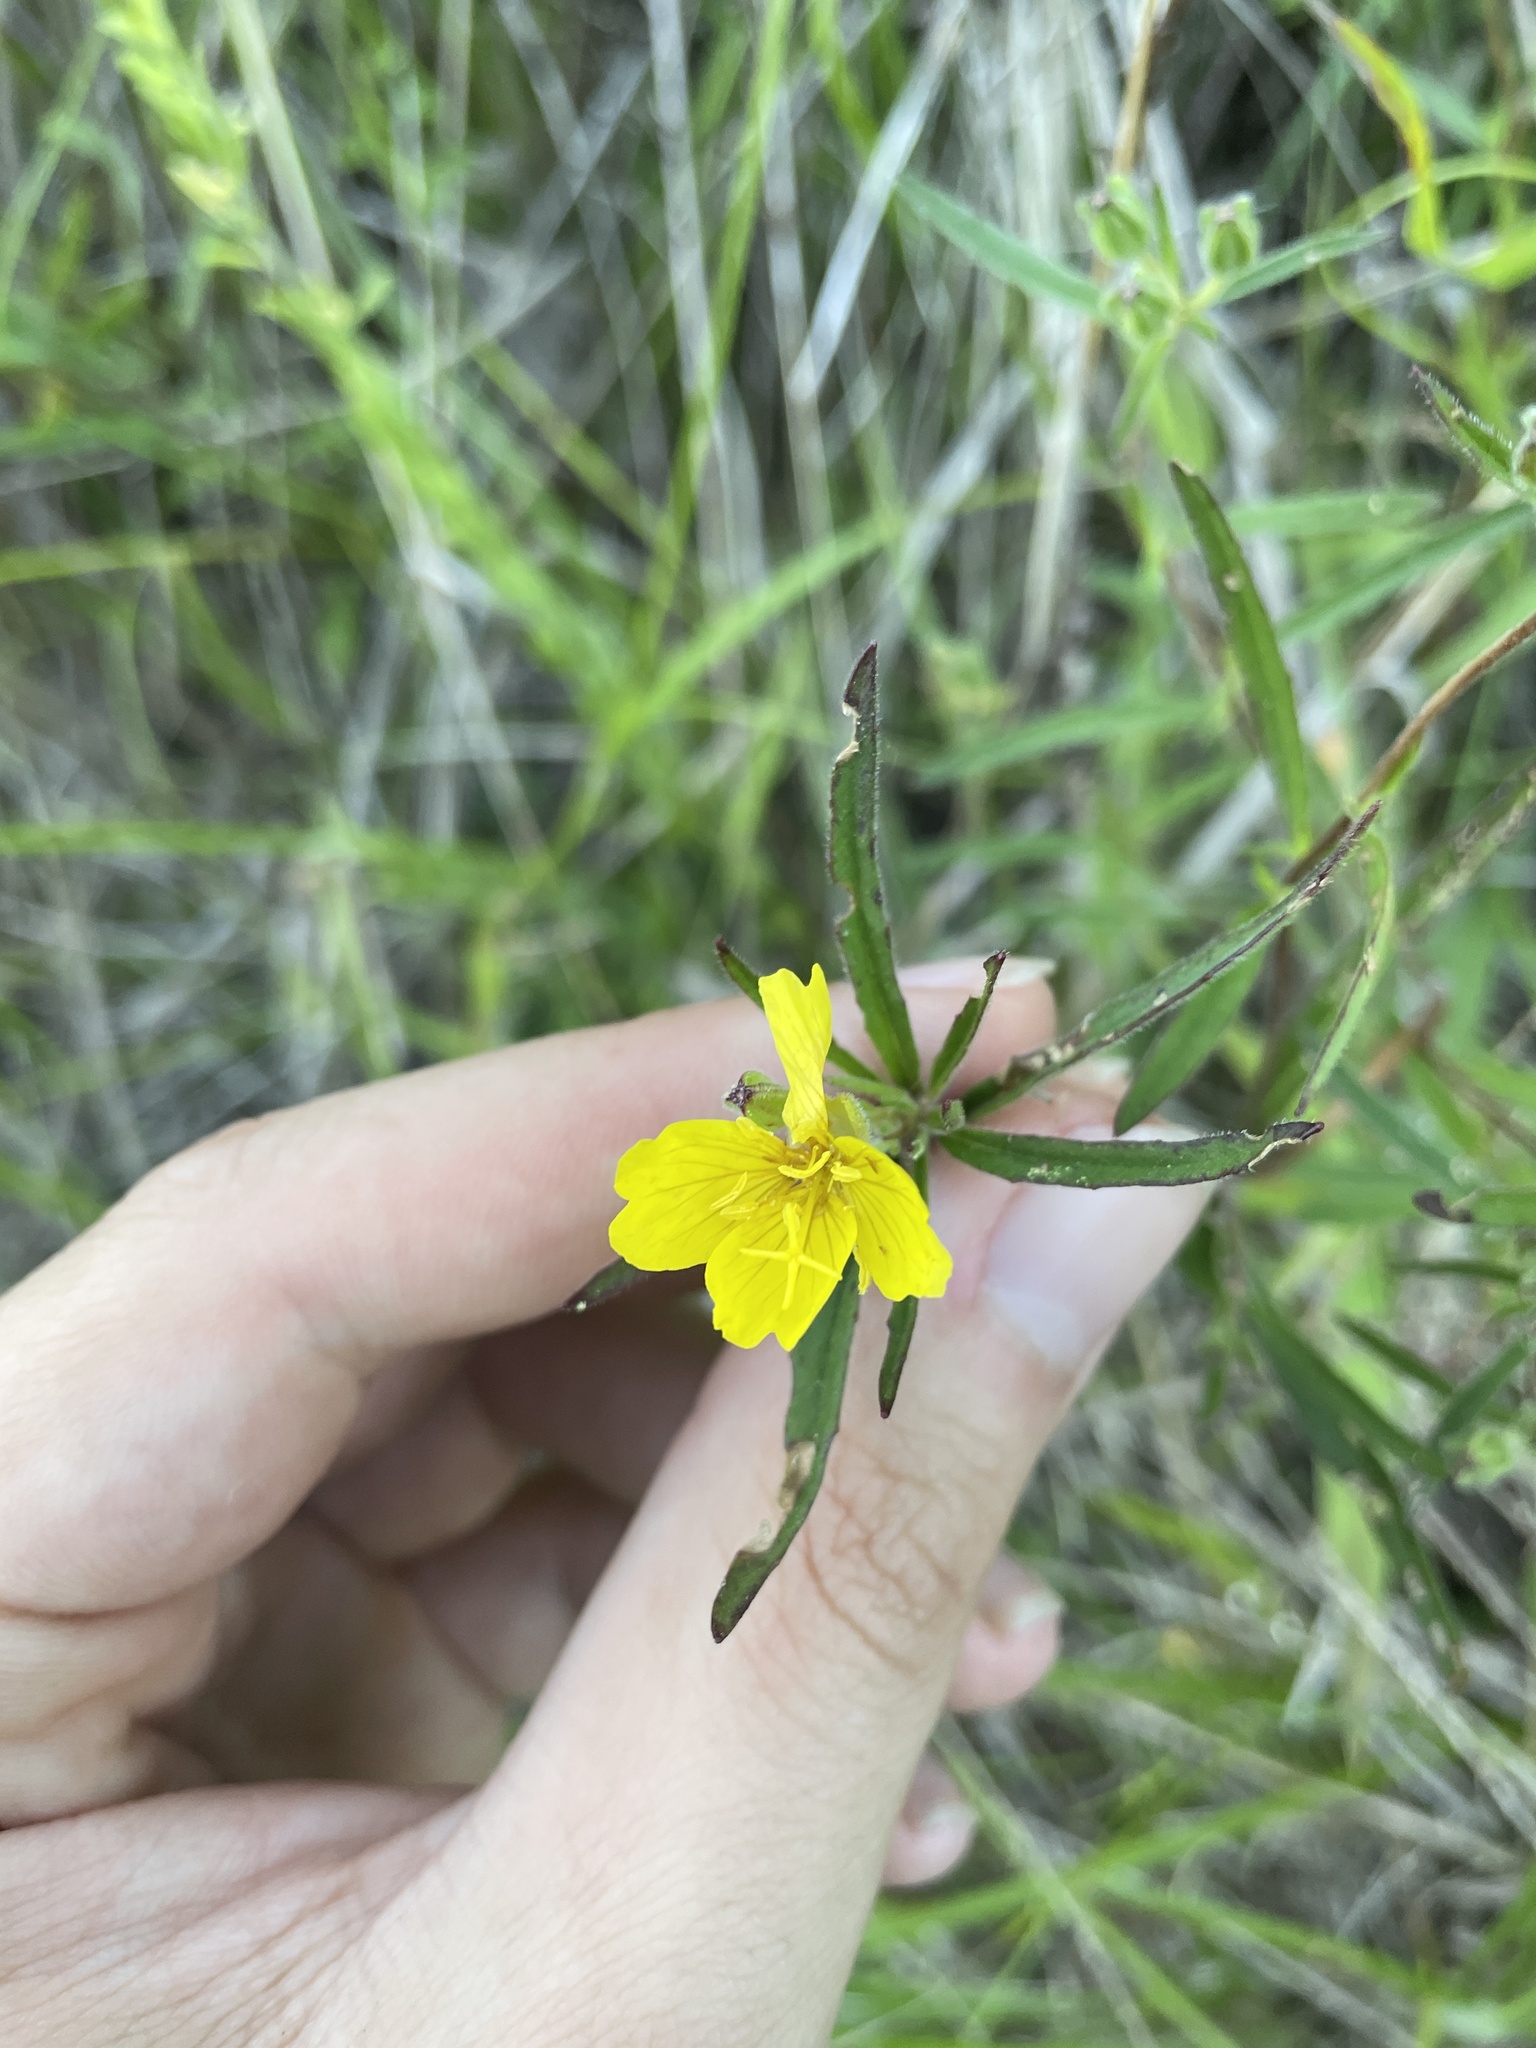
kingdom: Plantae
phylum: Tracheophyta
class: Magnoliopsida
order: Myrtales
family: Onagraceae
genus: Oenothera
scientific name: Oenothera fruticosa
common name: Southern sundrops
